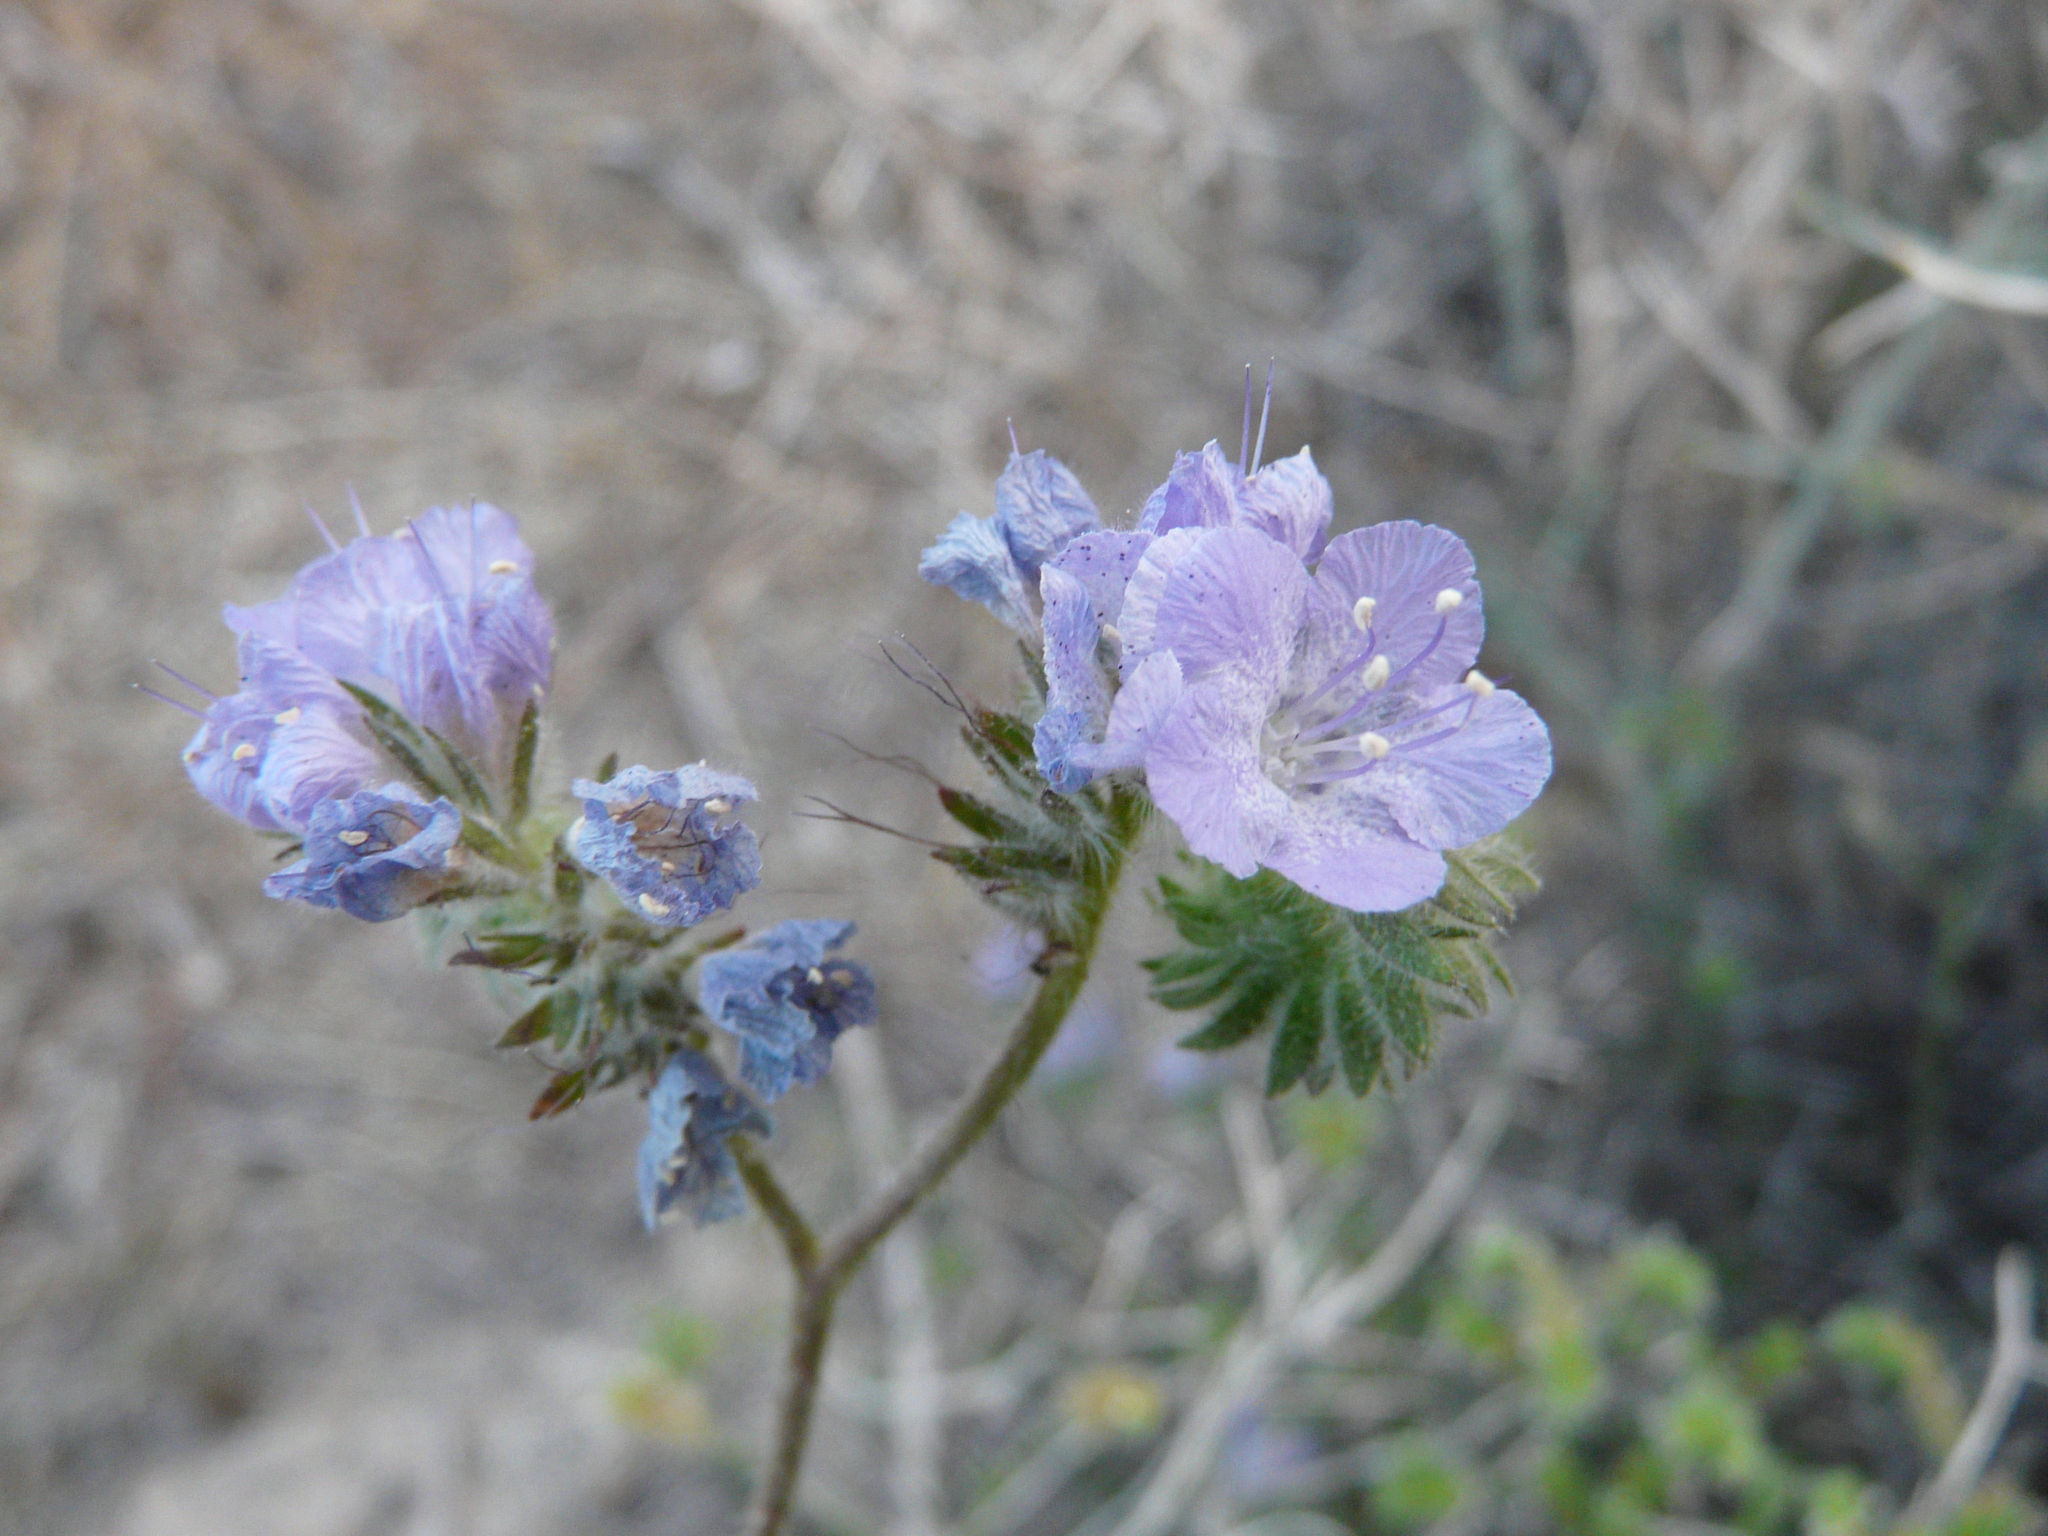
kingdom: Plantae
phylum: Tracheophyta
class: Magnoliopsida
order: Boraginales
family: Hydrophyllaceae
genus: Phacelia
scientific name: Phacelia distans
